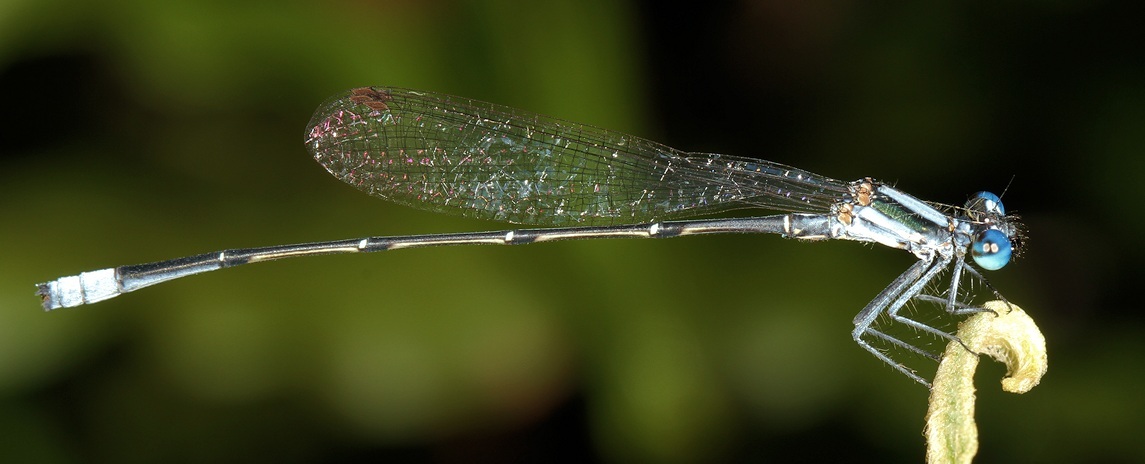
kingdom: Animalia
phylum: Arthropoda
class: Insecta
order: Odonata
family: Platycnemididae
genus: Elattoneura
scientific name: Elattoneura glauca
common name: Common threadtail
